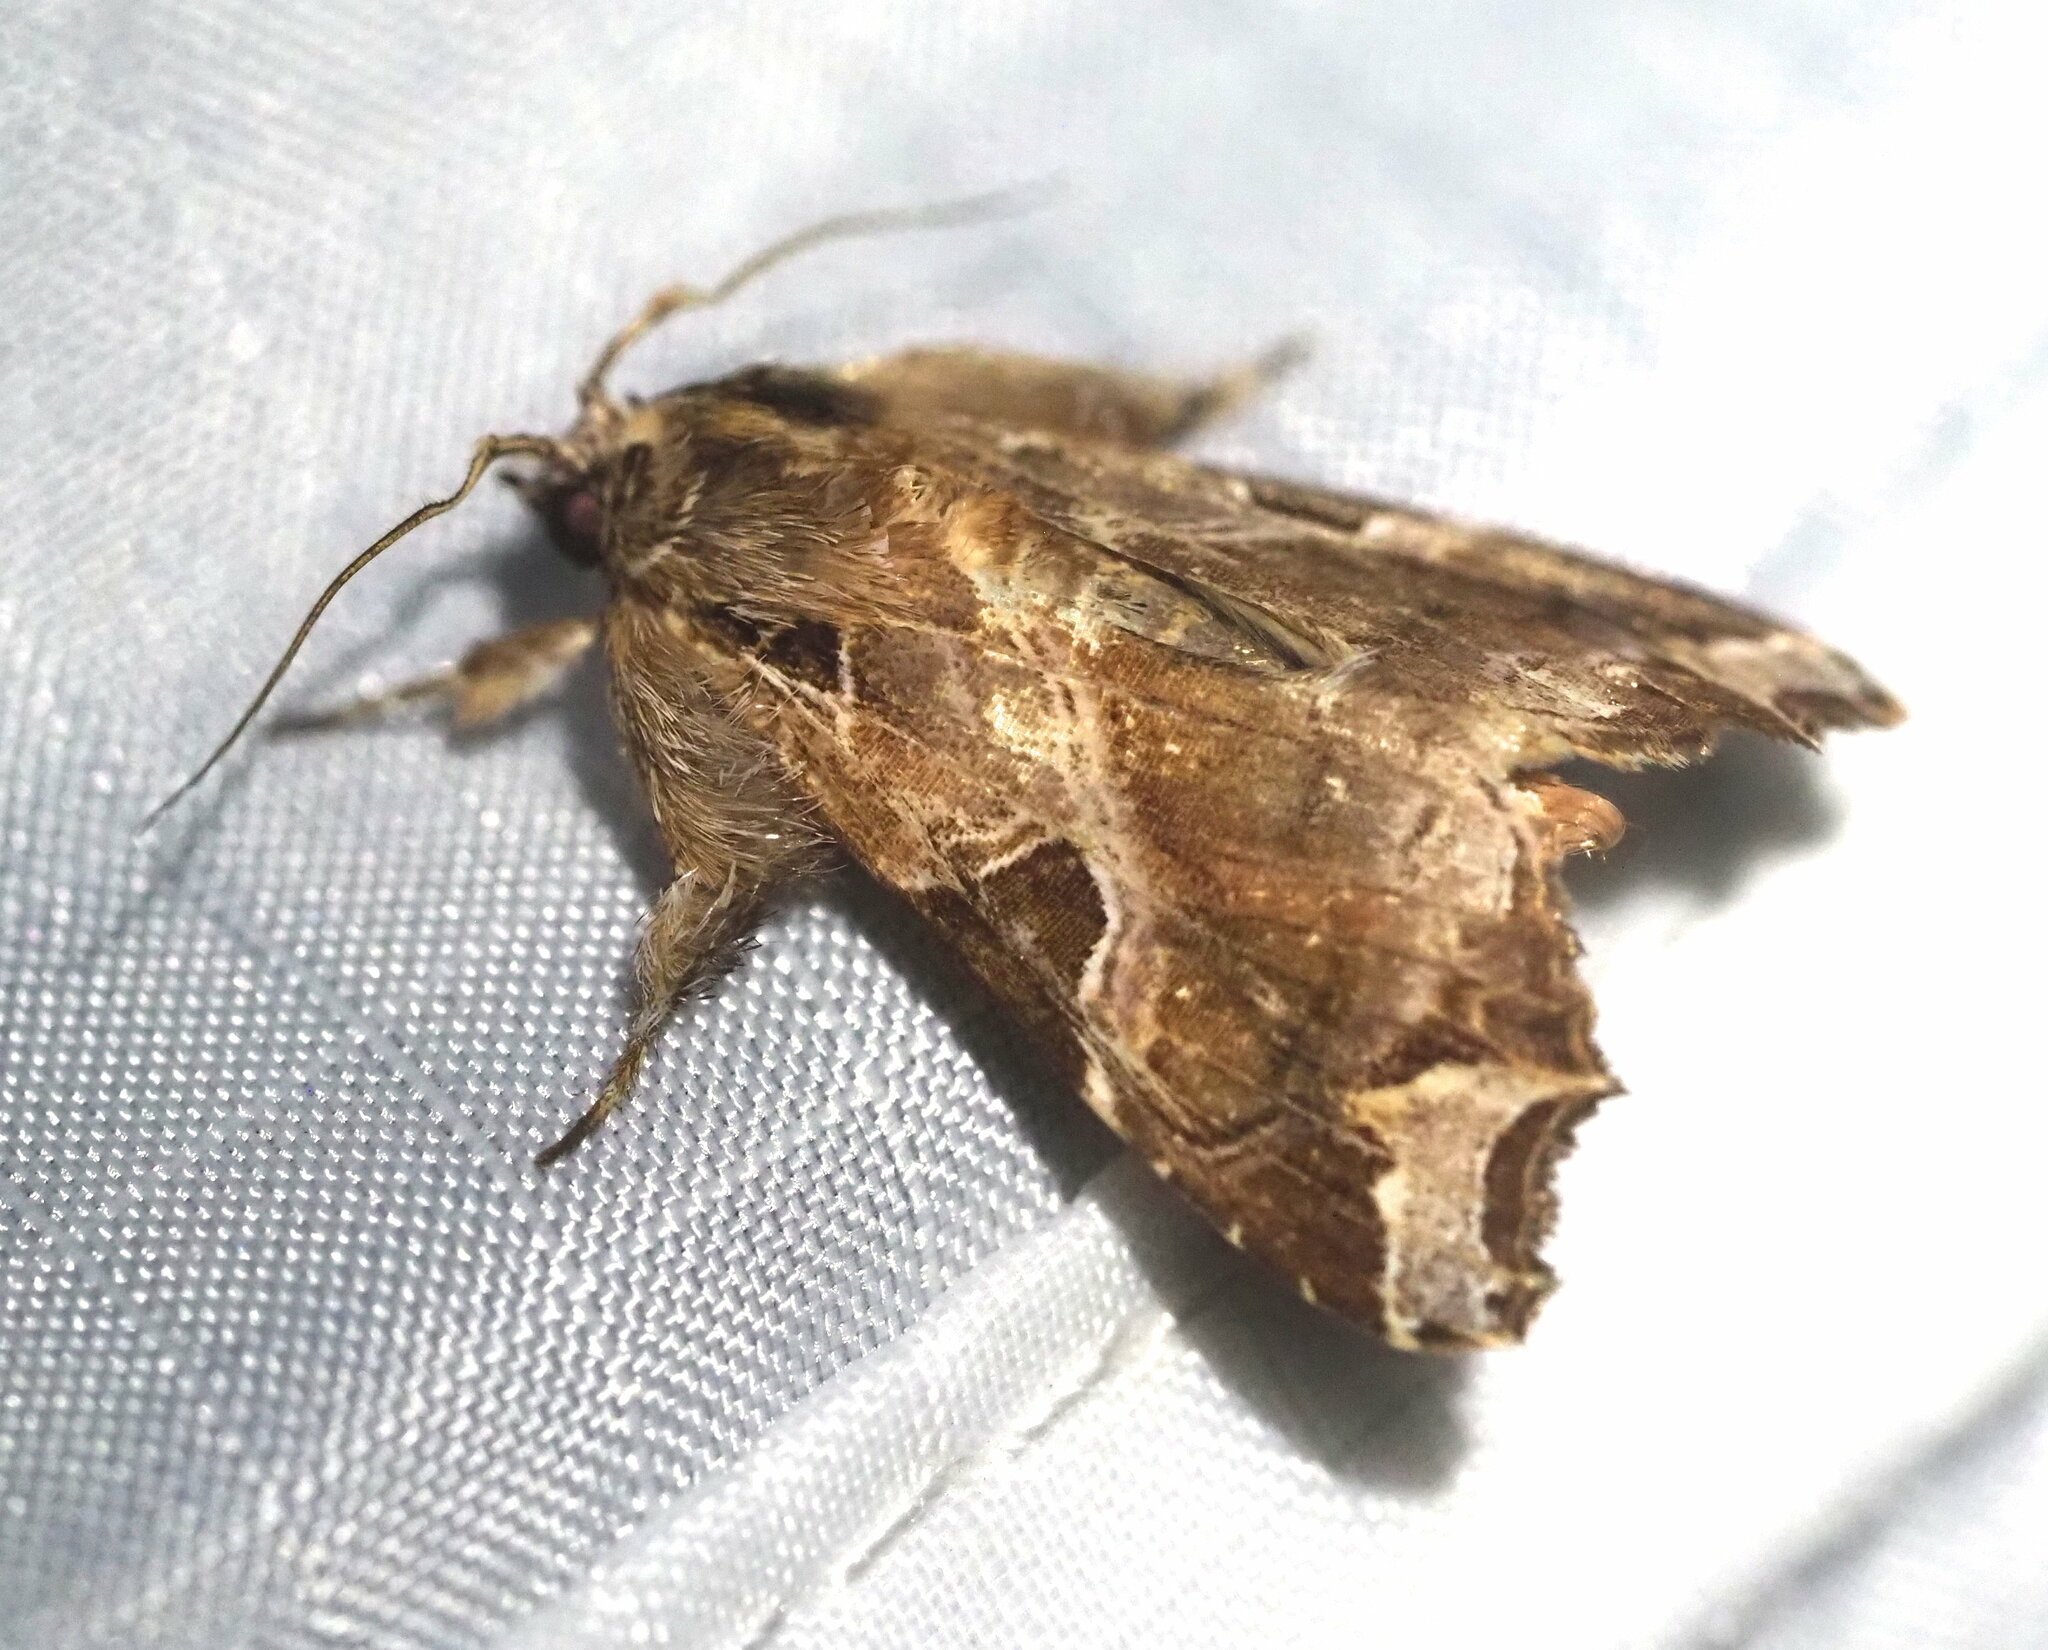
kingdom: Animalia
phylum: Arthropoda
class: Insecta
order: Lepidoptera
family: Noctuidae
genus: Callopistria
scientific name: Callopistria floridensis
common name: Florida fern moth
